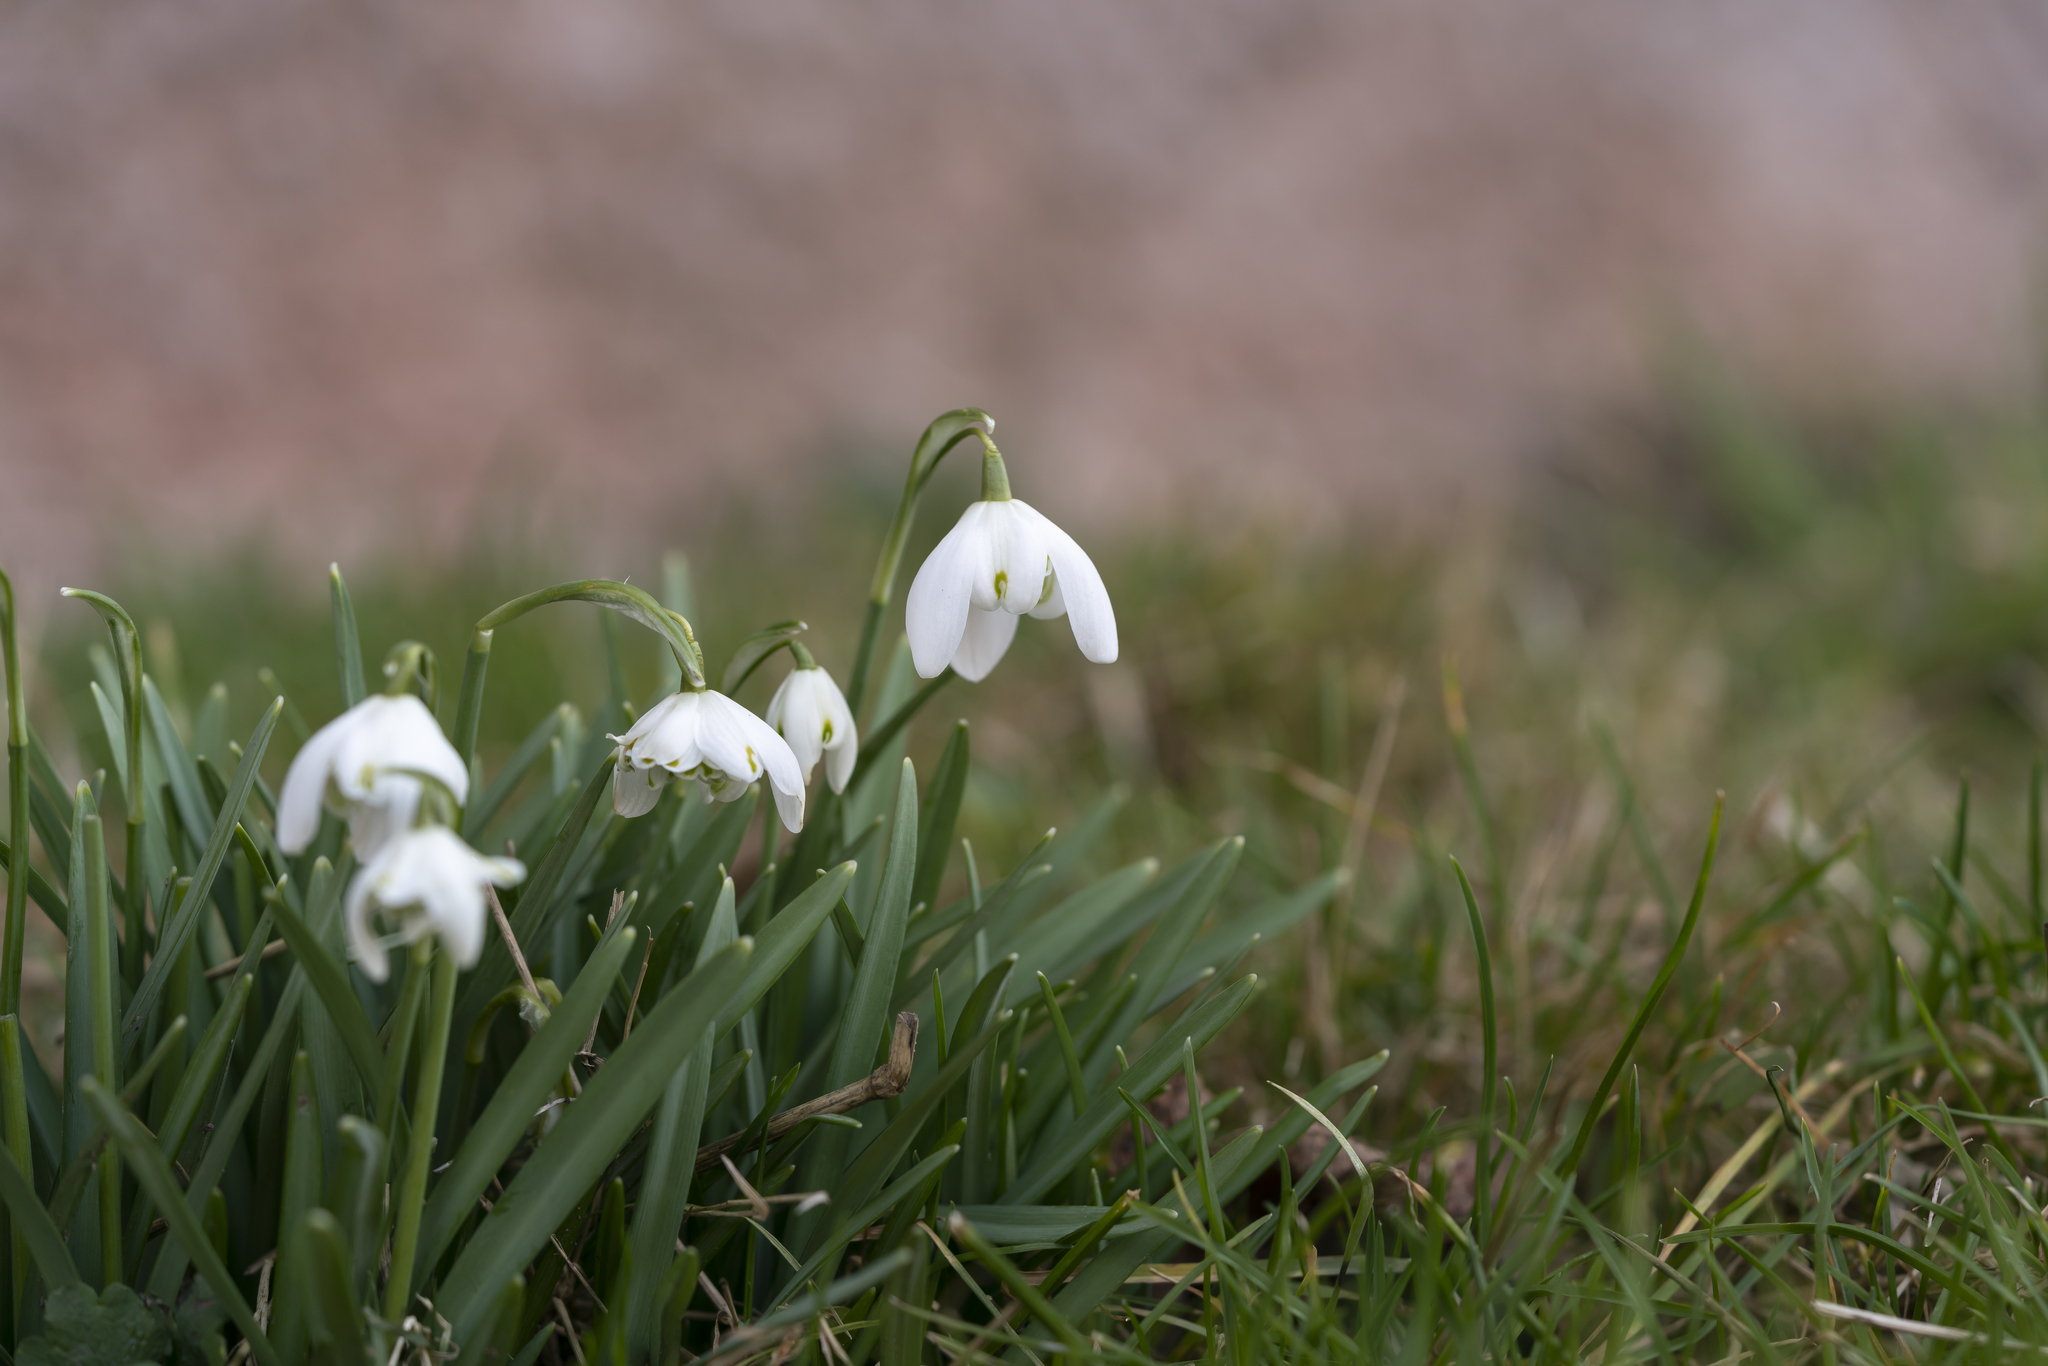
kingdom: Plantae
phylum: Tracheophyta
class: Liliopsida
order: Asparagales
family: Amaryllidaceae
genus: Galanthus
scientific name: Galanthus nivalis
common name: Snowdrop
